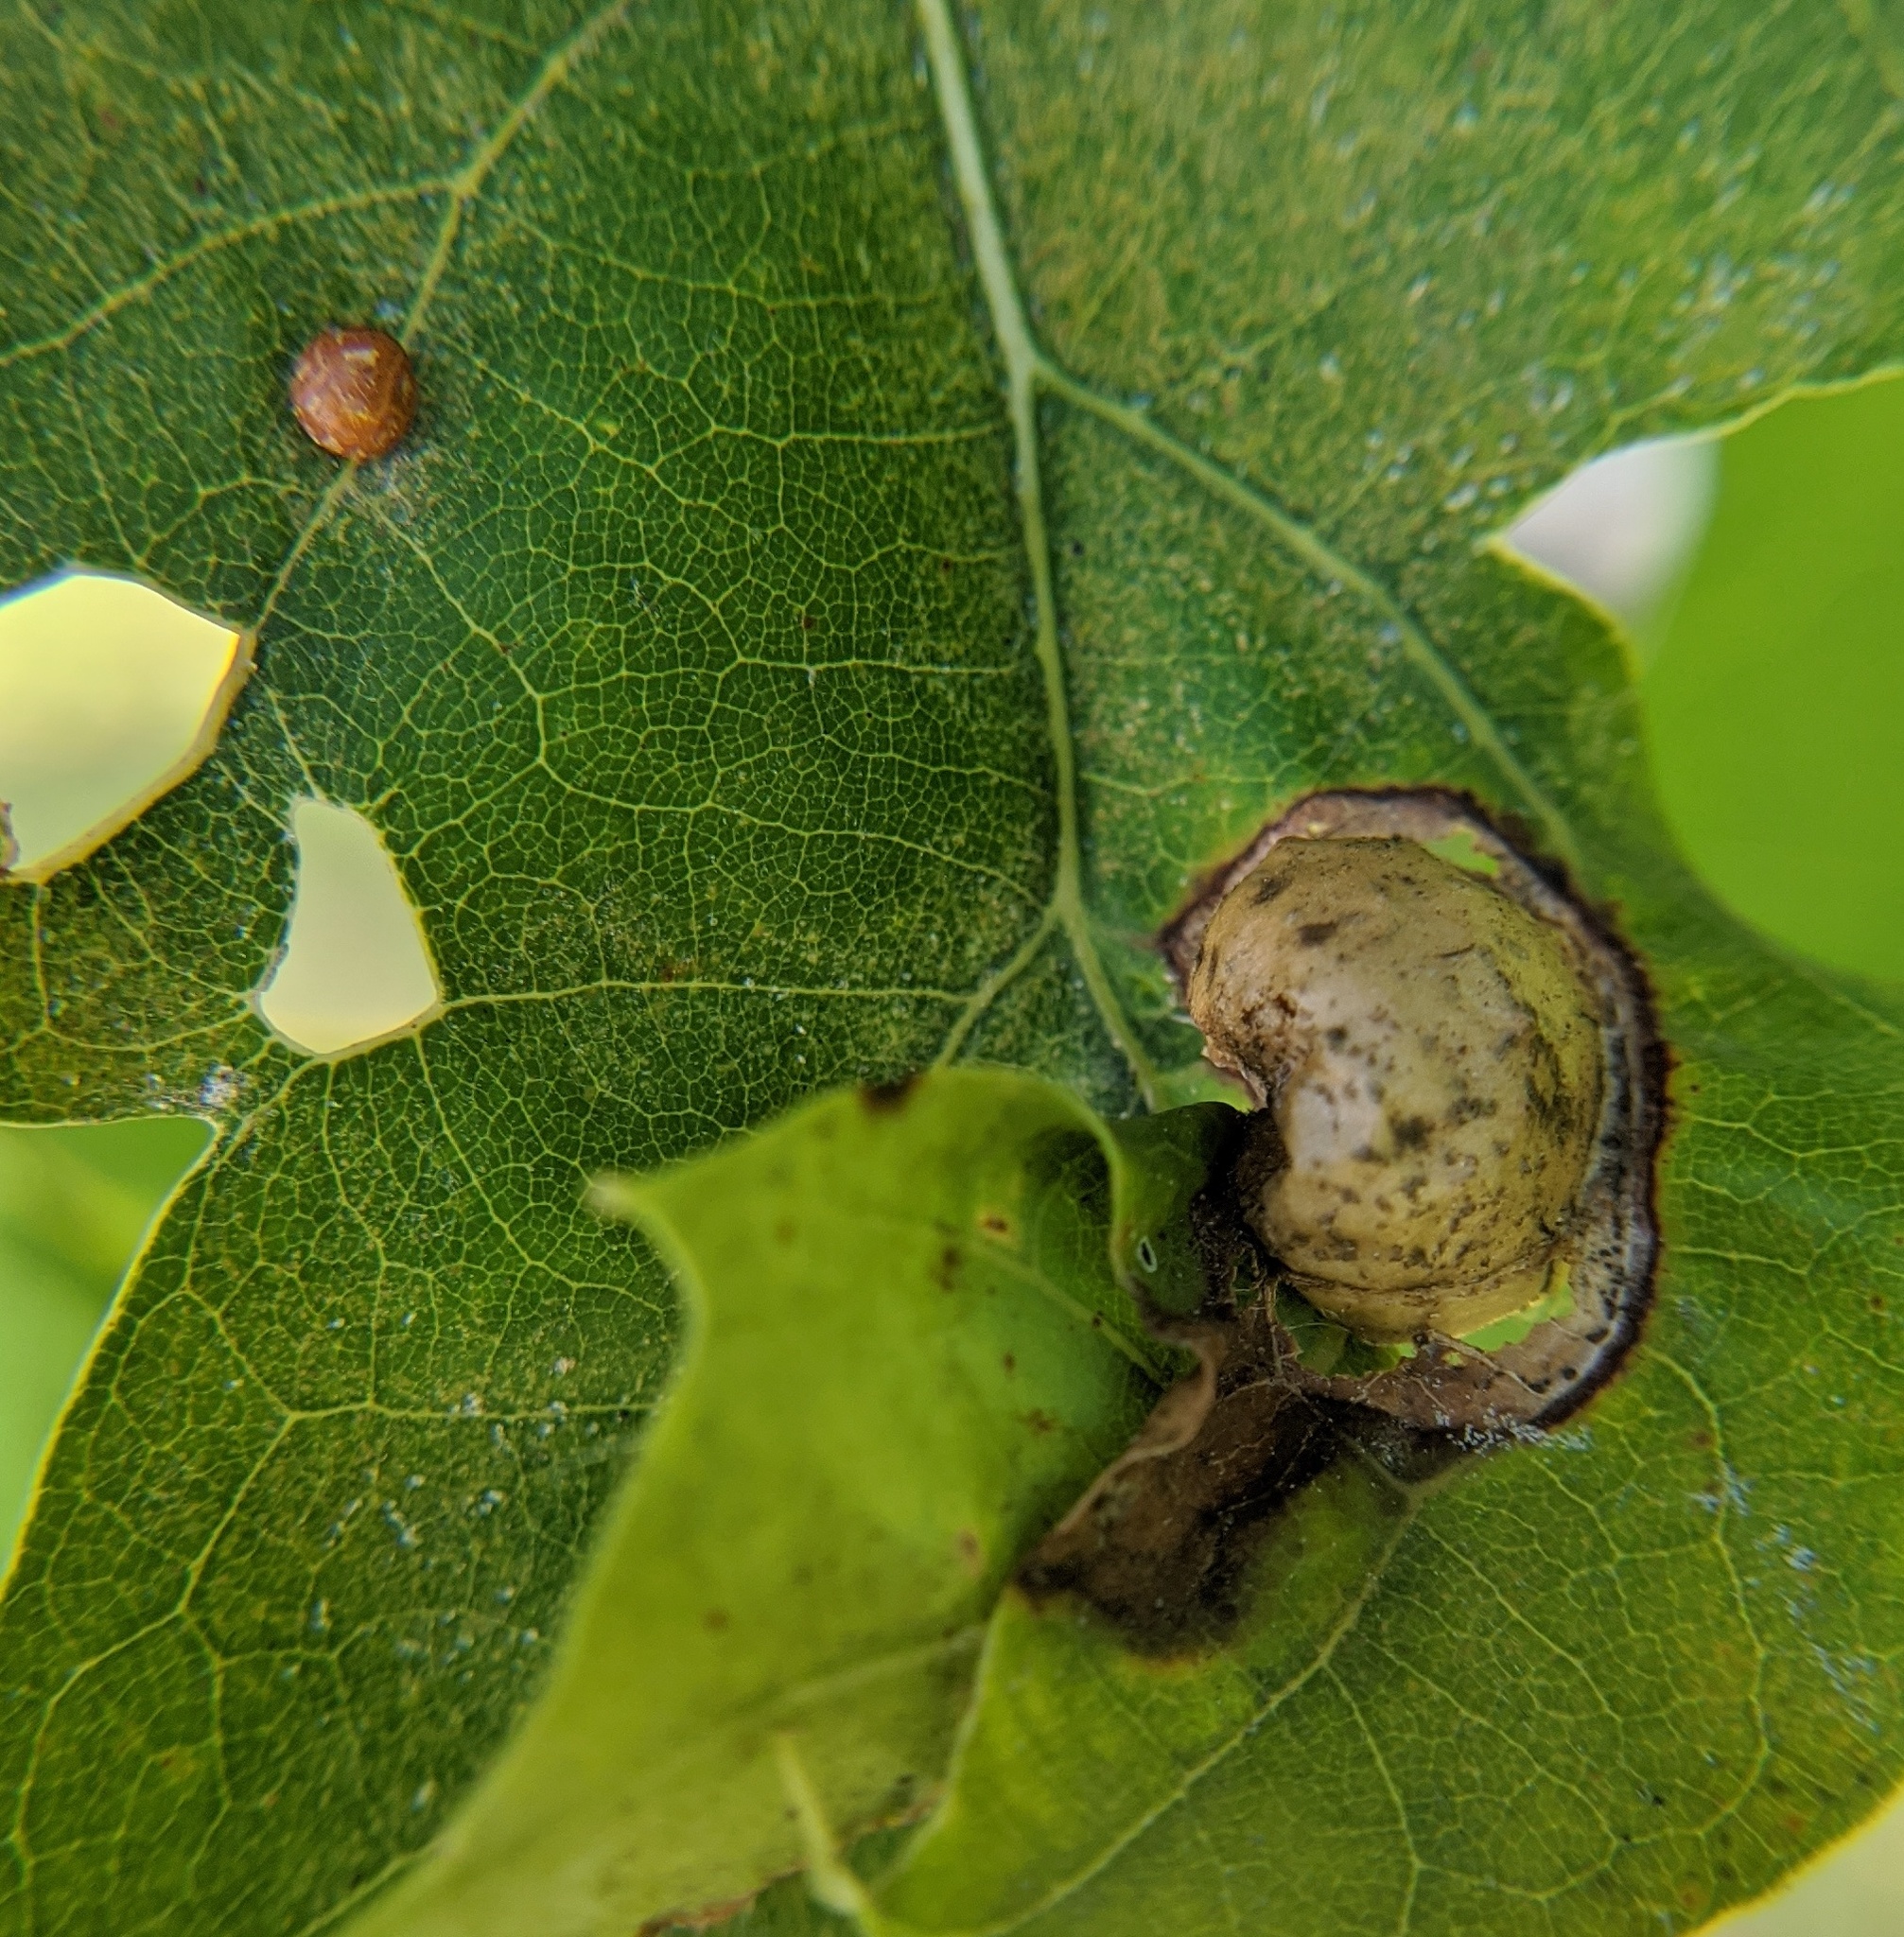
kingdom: Animalia
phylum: Arthropoda
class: Insecta
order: Hymenoptera
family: Cynipidae
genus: Amphibolips
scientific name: Amphibolips
